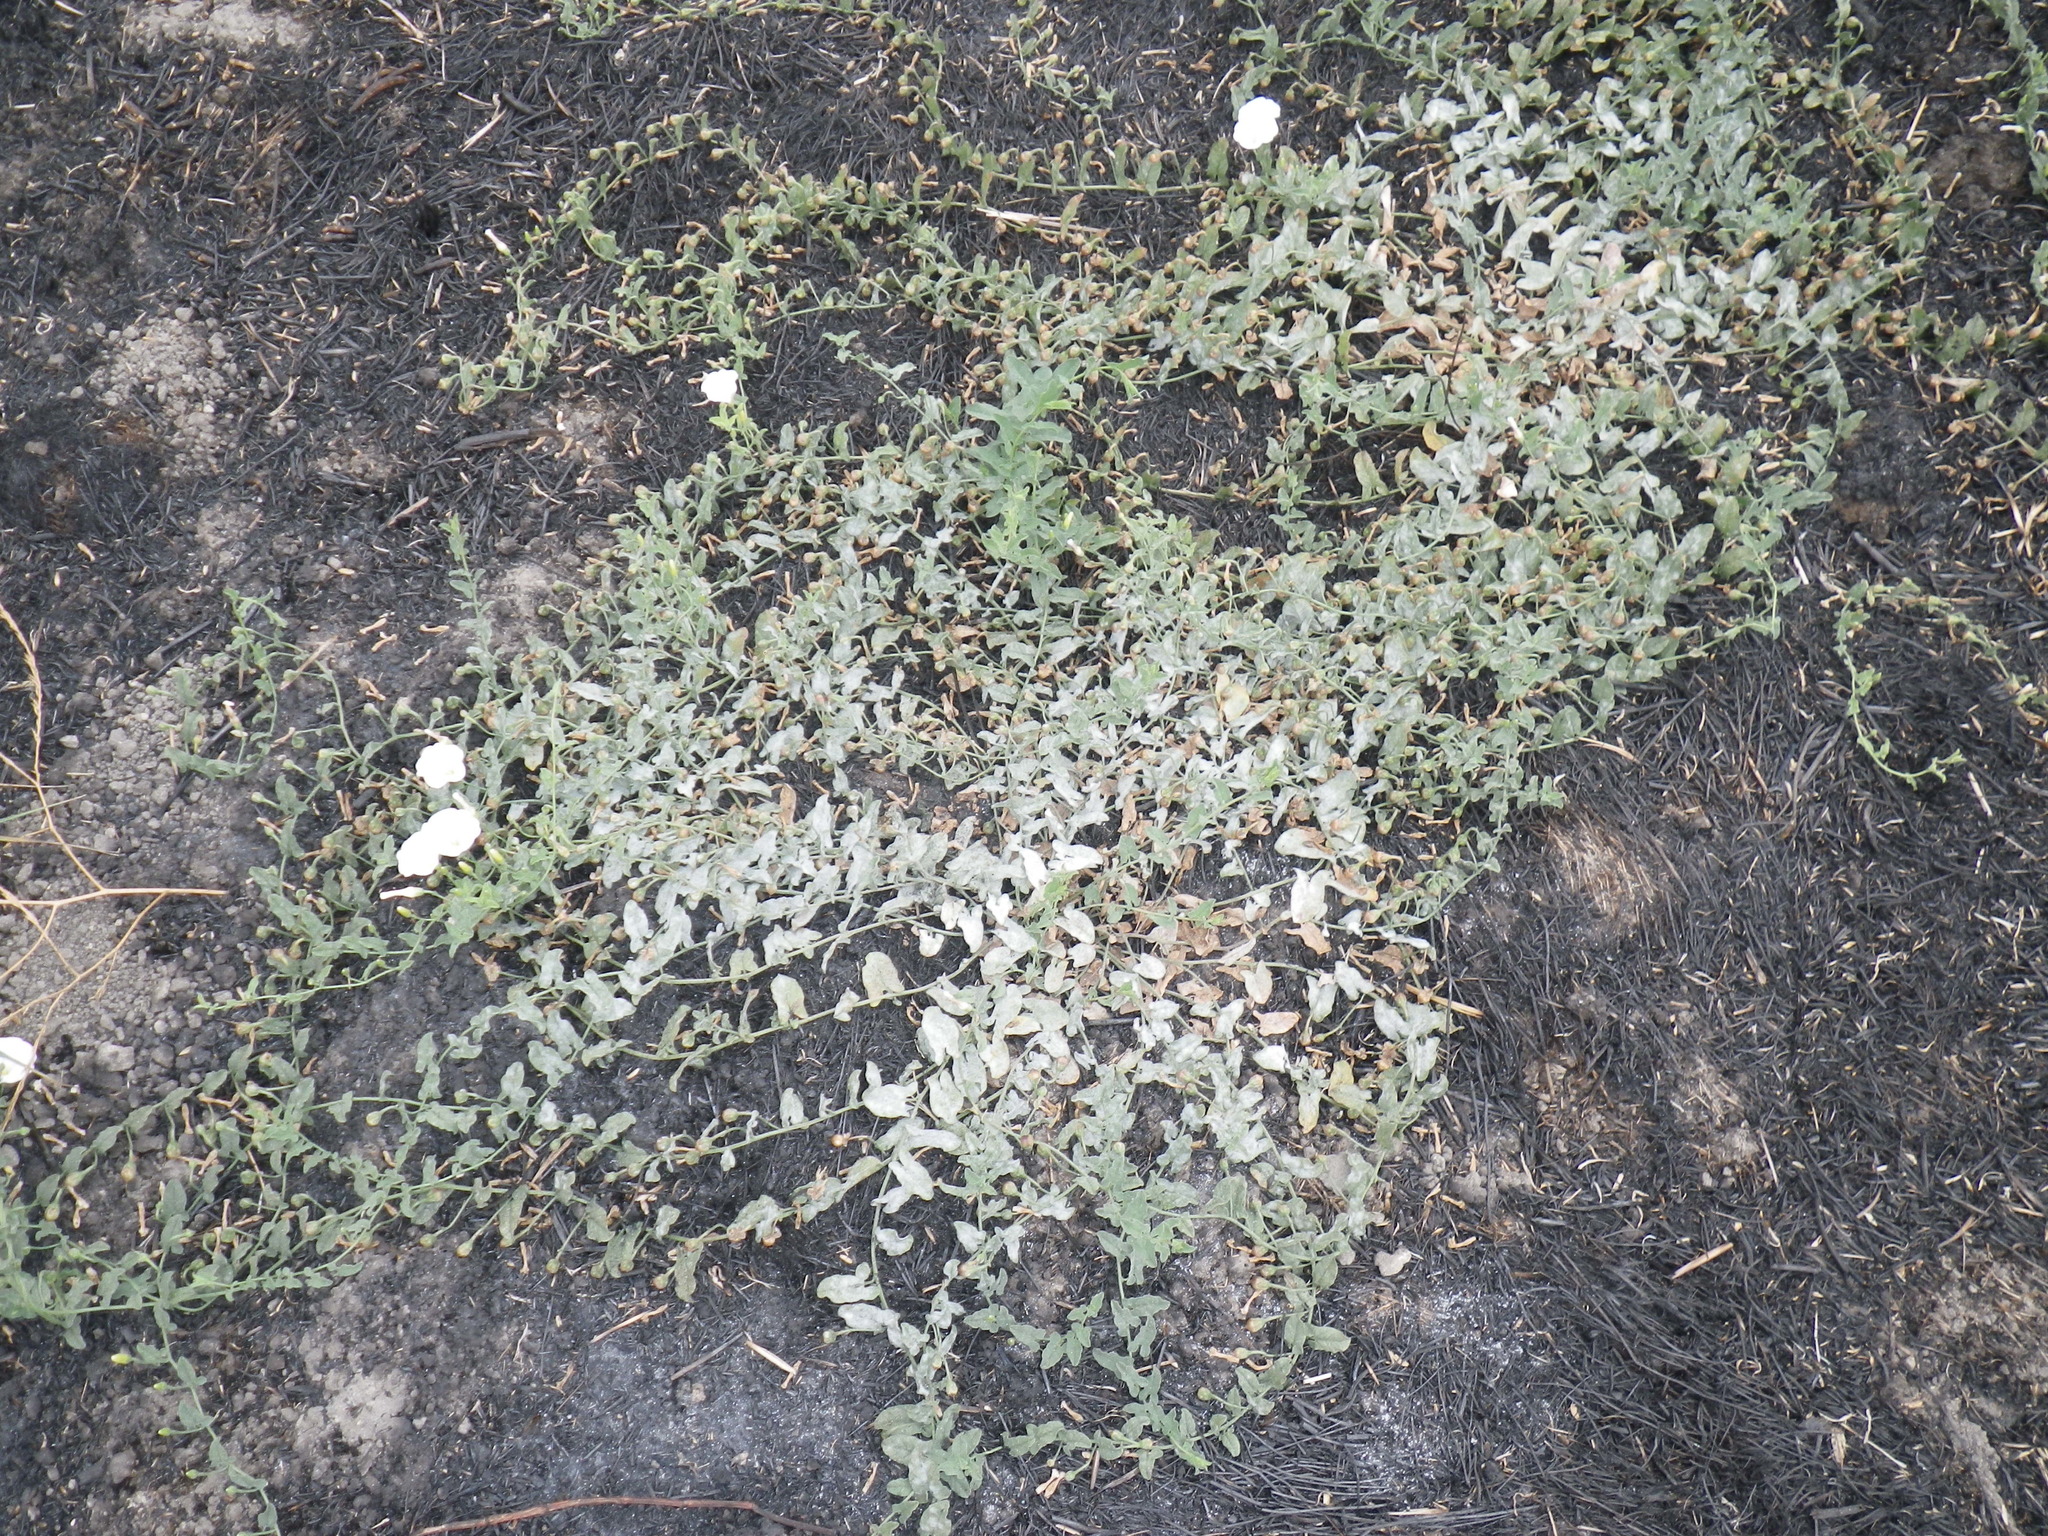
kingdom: Plantae
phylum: Tracheophyta
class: Magnoliopsida
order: Solanales
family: Convolvulaceae
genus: Convolvulus
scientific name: Convolvulus arvensis
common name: Field bindweed
